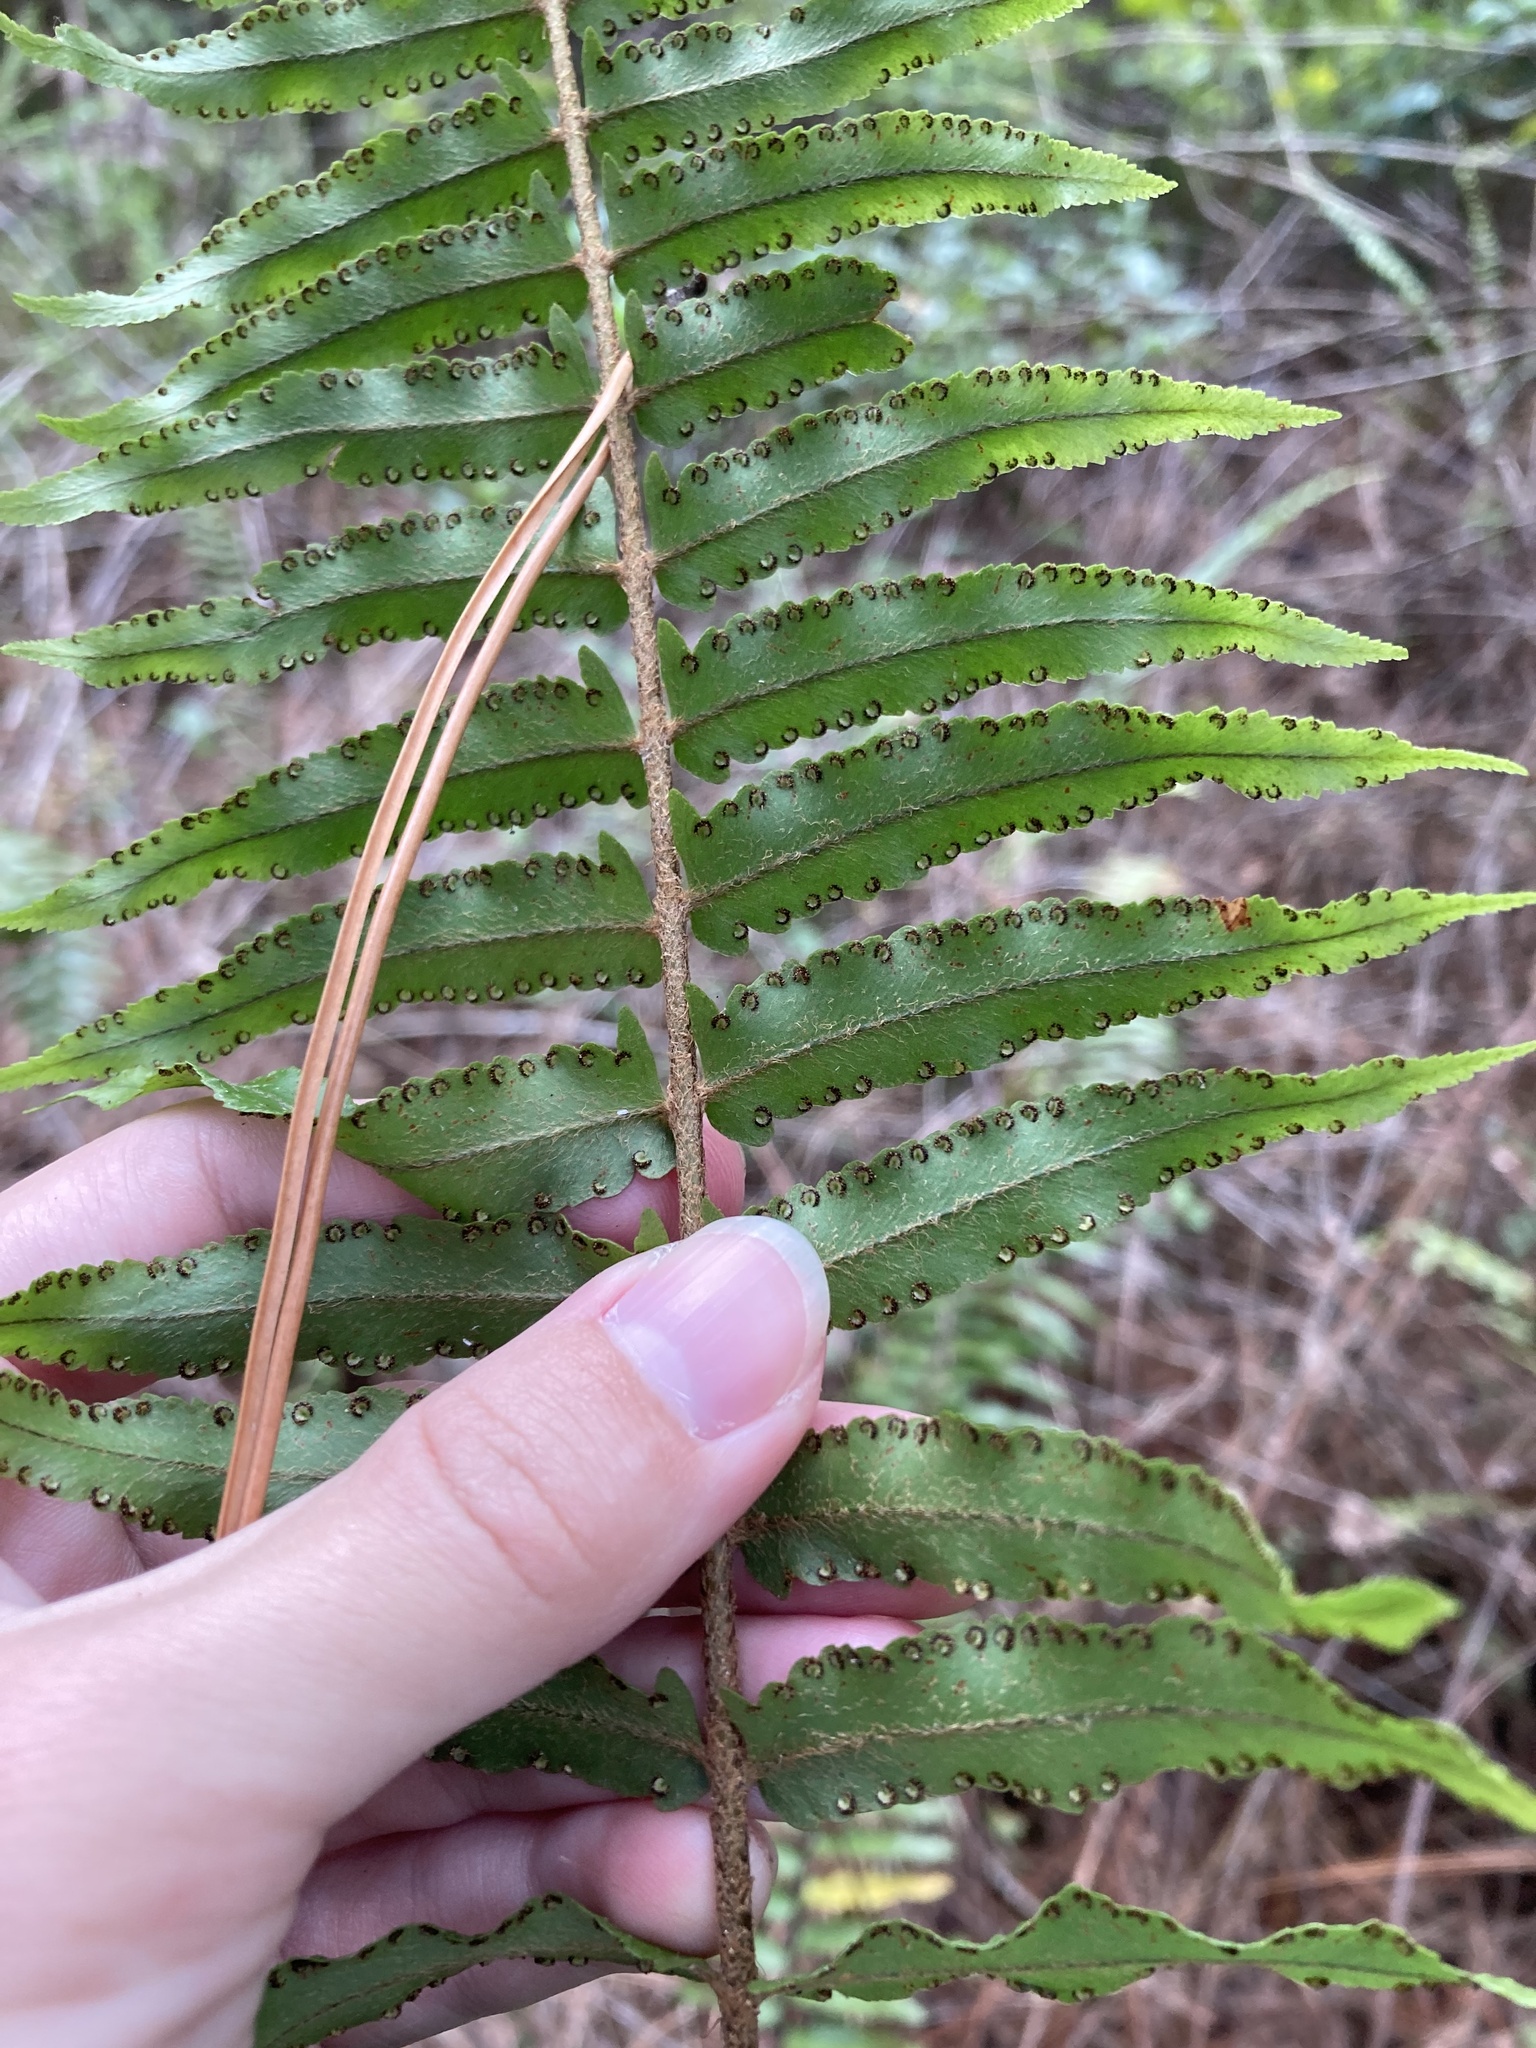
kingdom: Plantae
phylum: Tracheophyta
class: Polypodiopsida
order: Polypodiales
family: Nephrolepidaceae
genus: Nephrolepis
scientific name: Nephrolepis biserrata
